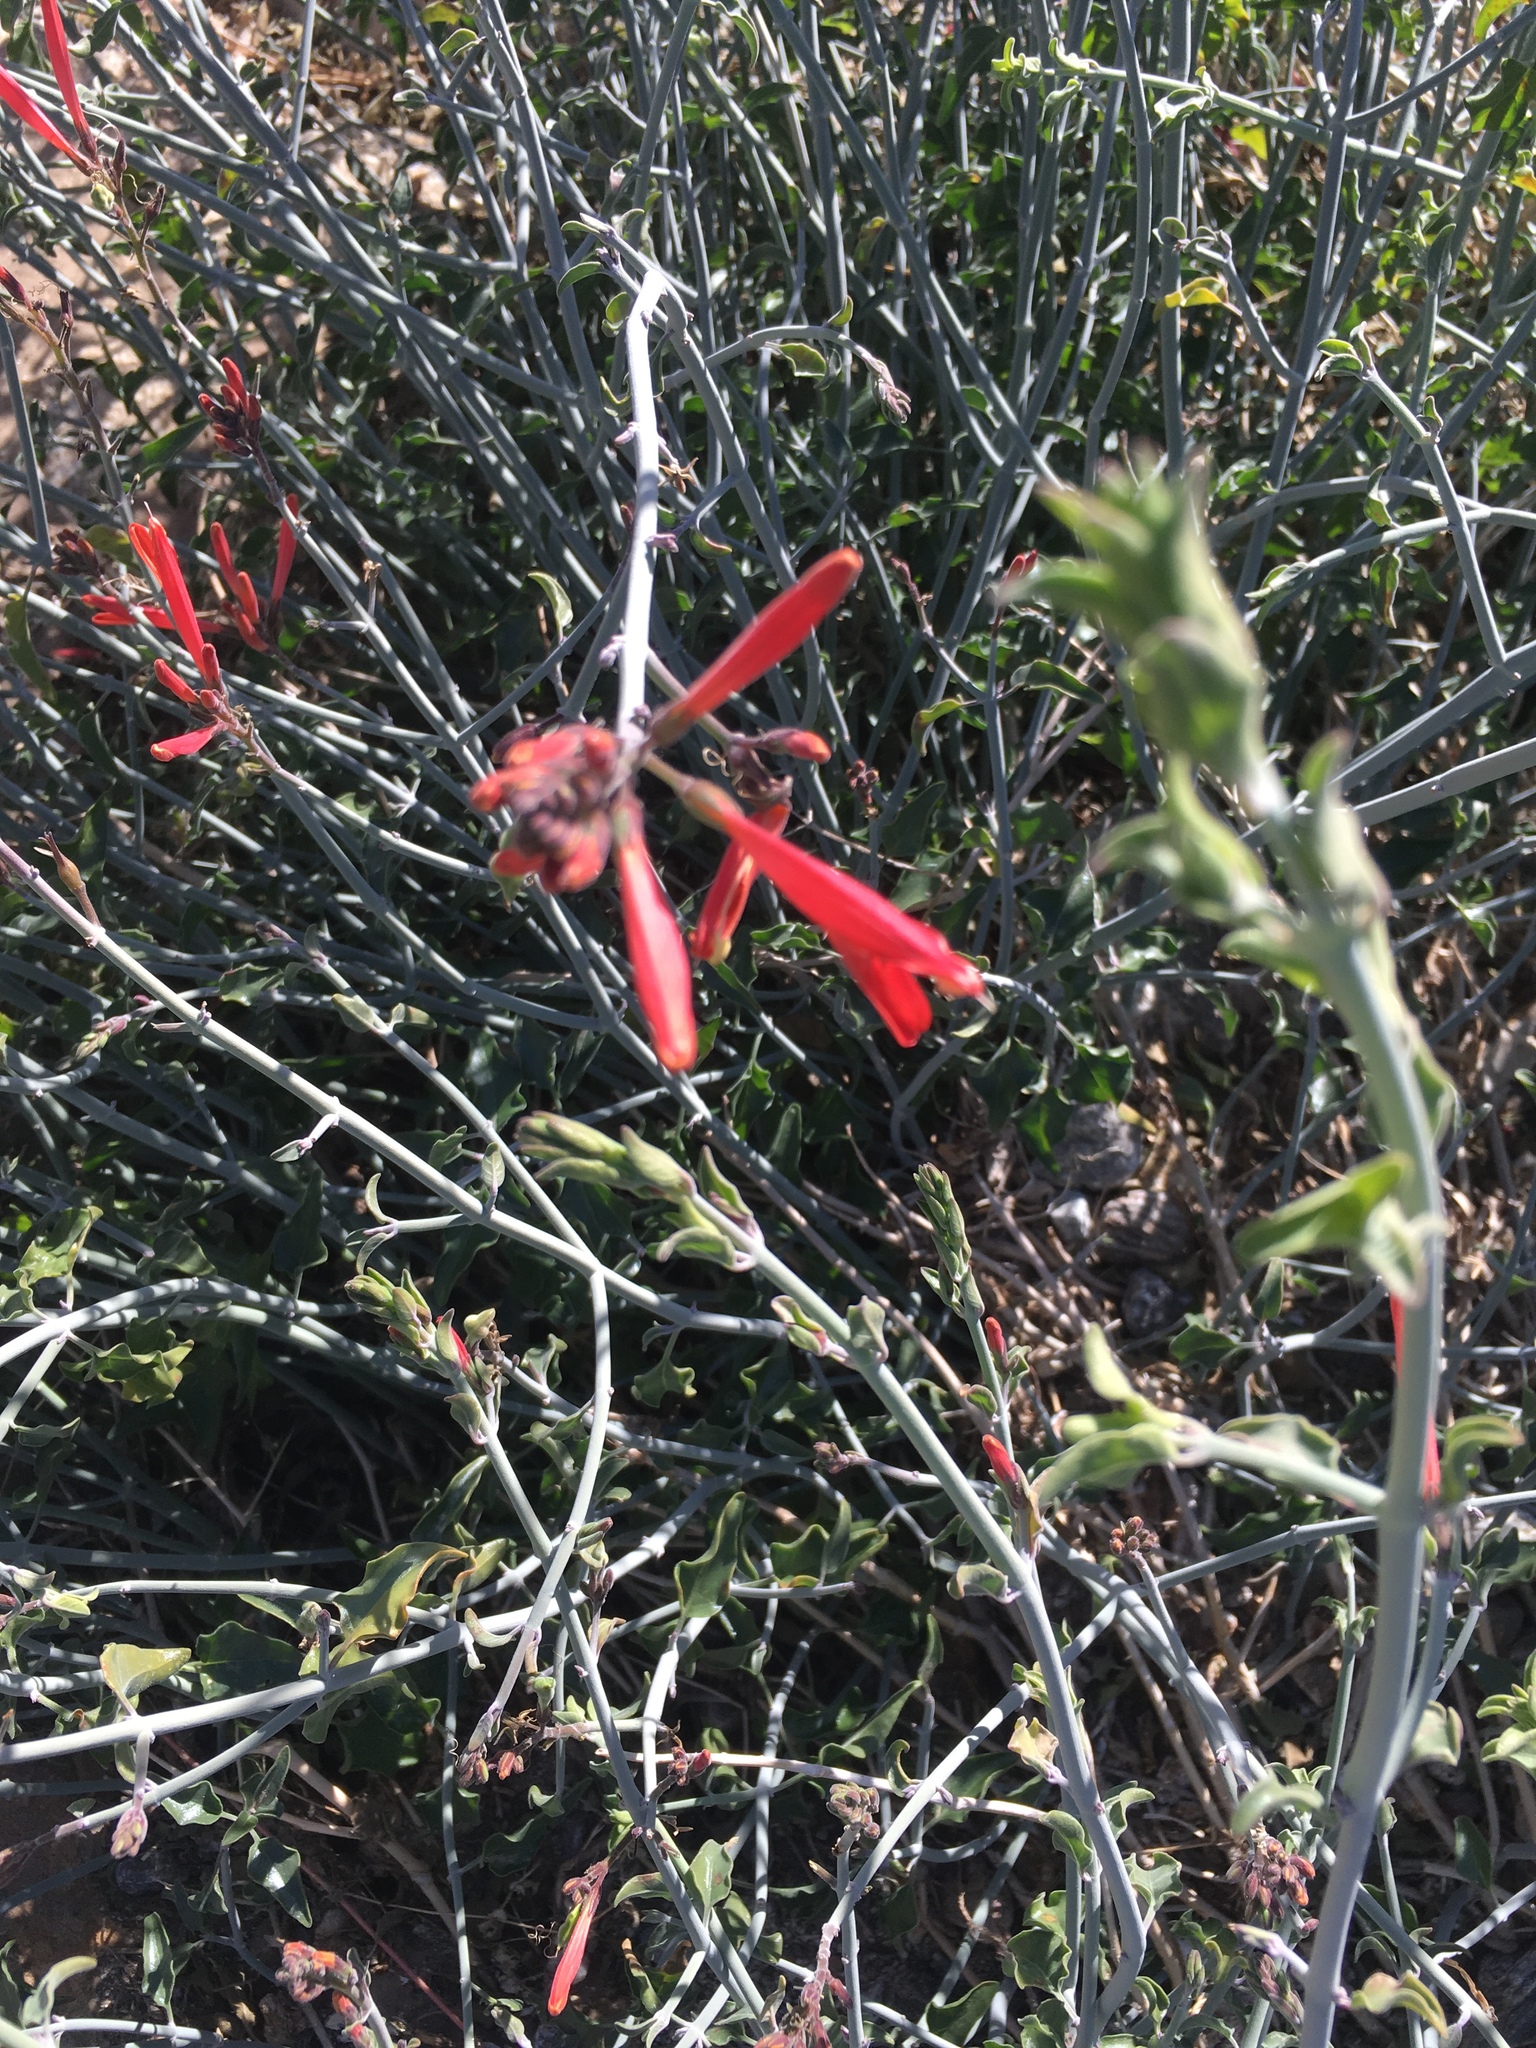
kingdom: Plantae
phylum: Tracheophyta
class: Magnoliopsida
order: Lamiales
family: Acanthaceae
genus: Justicia
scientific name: Justicia californica
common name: Chuparosa-honeysuckle
